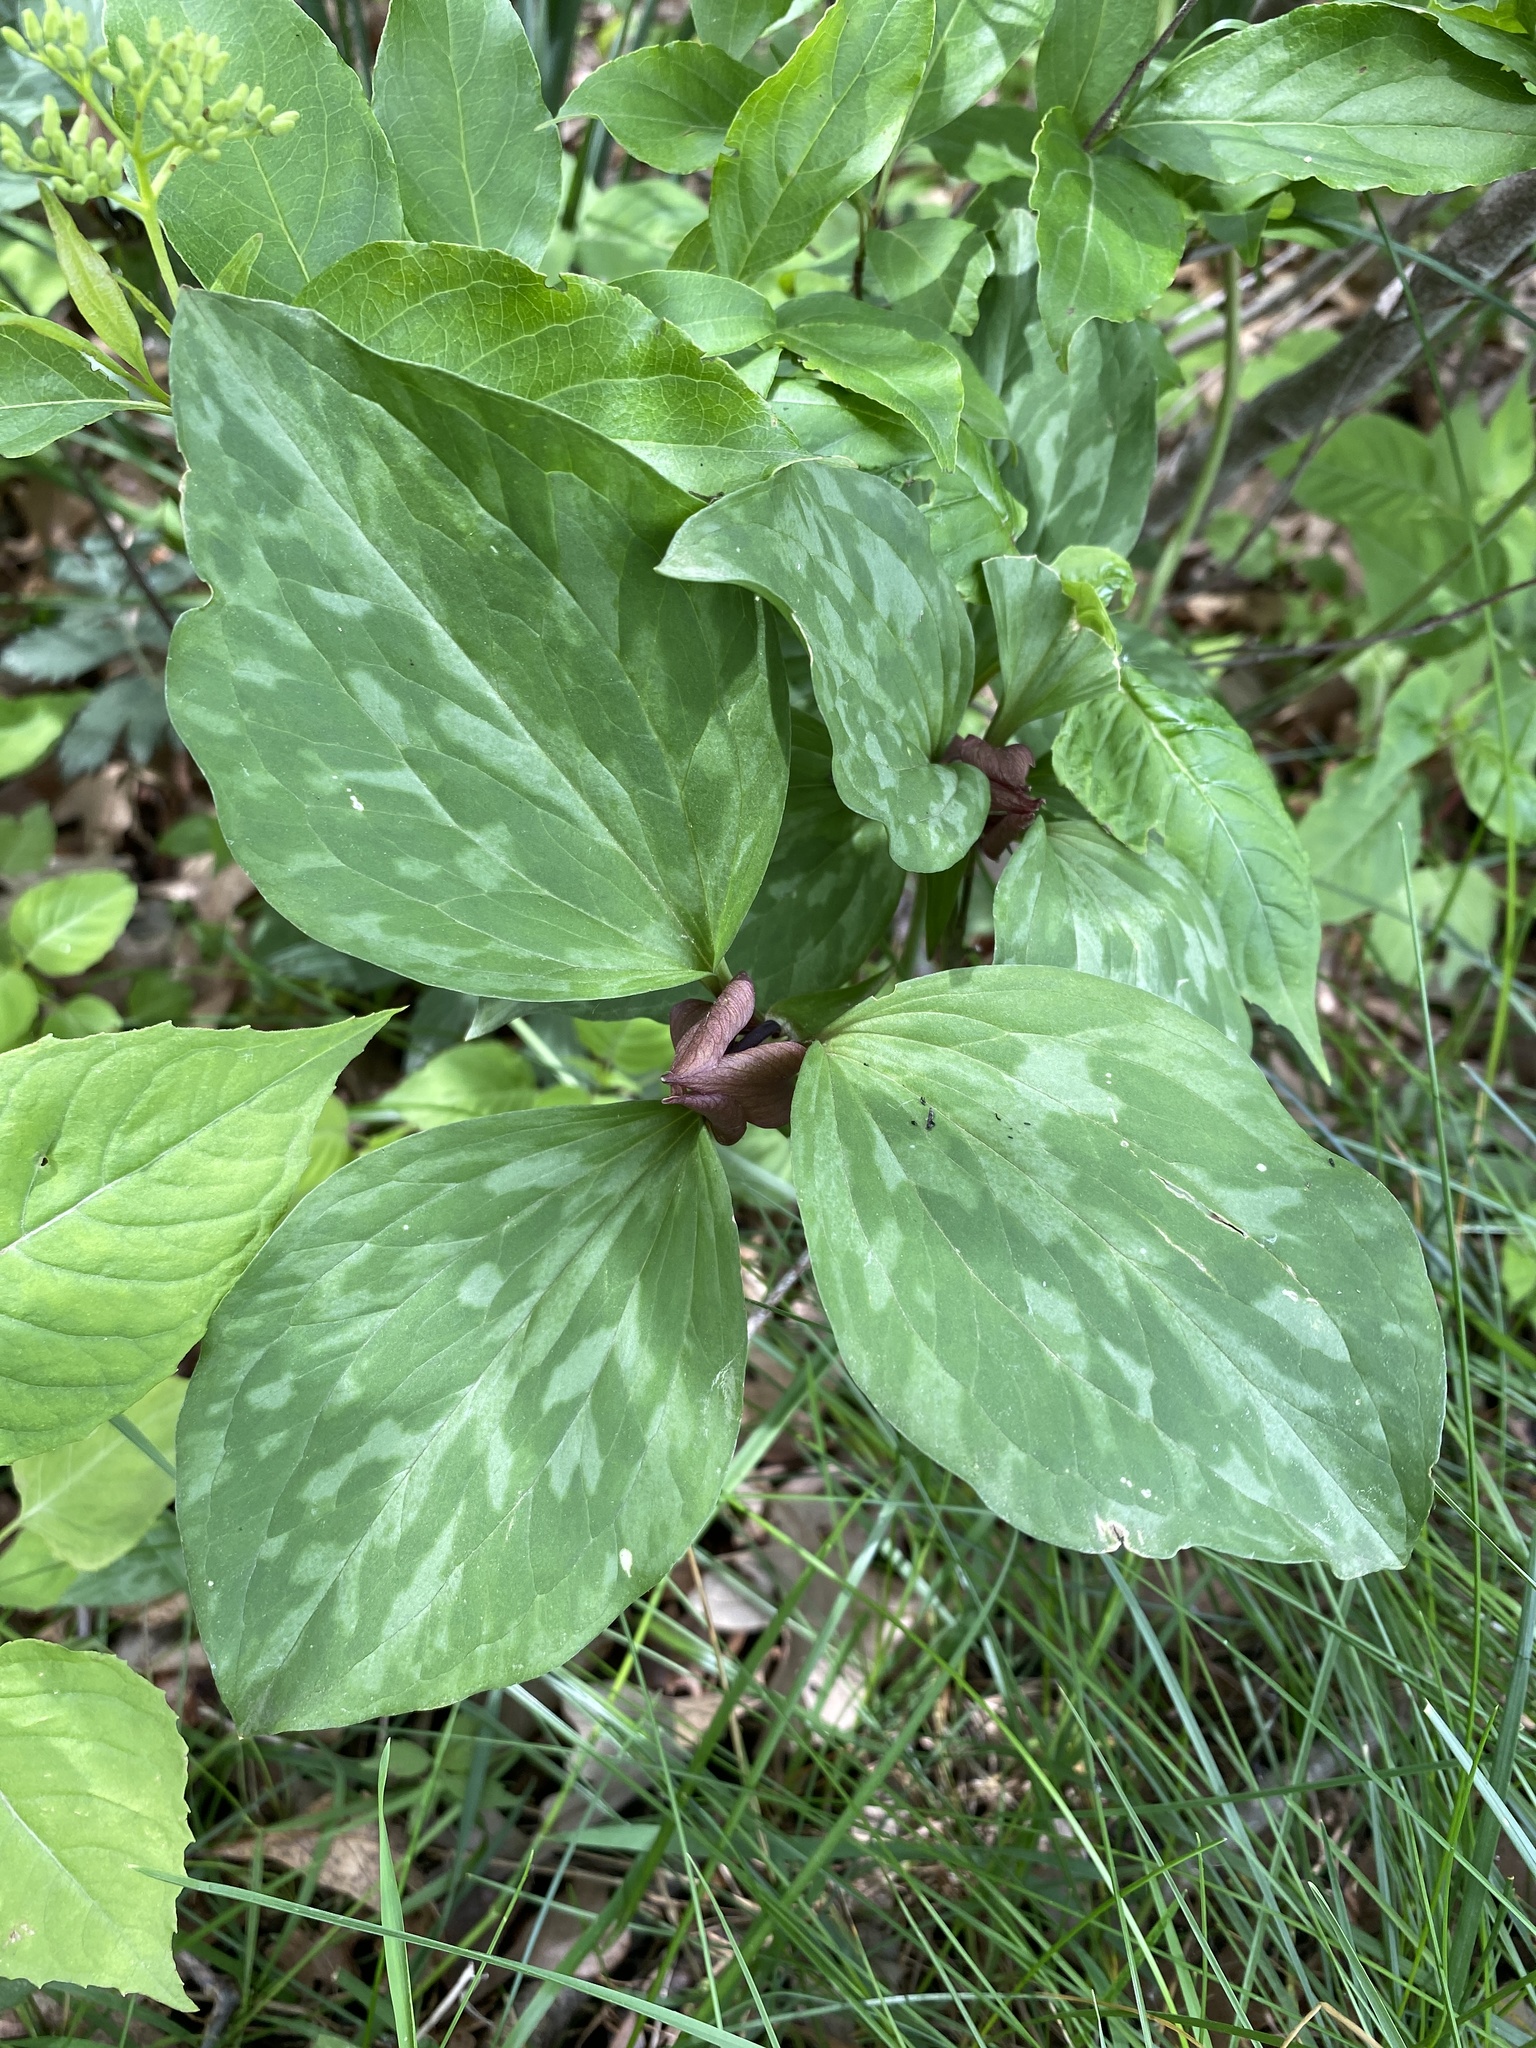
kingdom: Plantae
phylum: Tracheophyta
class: Liliopsida
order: Liliales
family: Melanthiaceae
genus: Trillium
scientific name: Trillium recurvatum
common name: Bloody butcher
